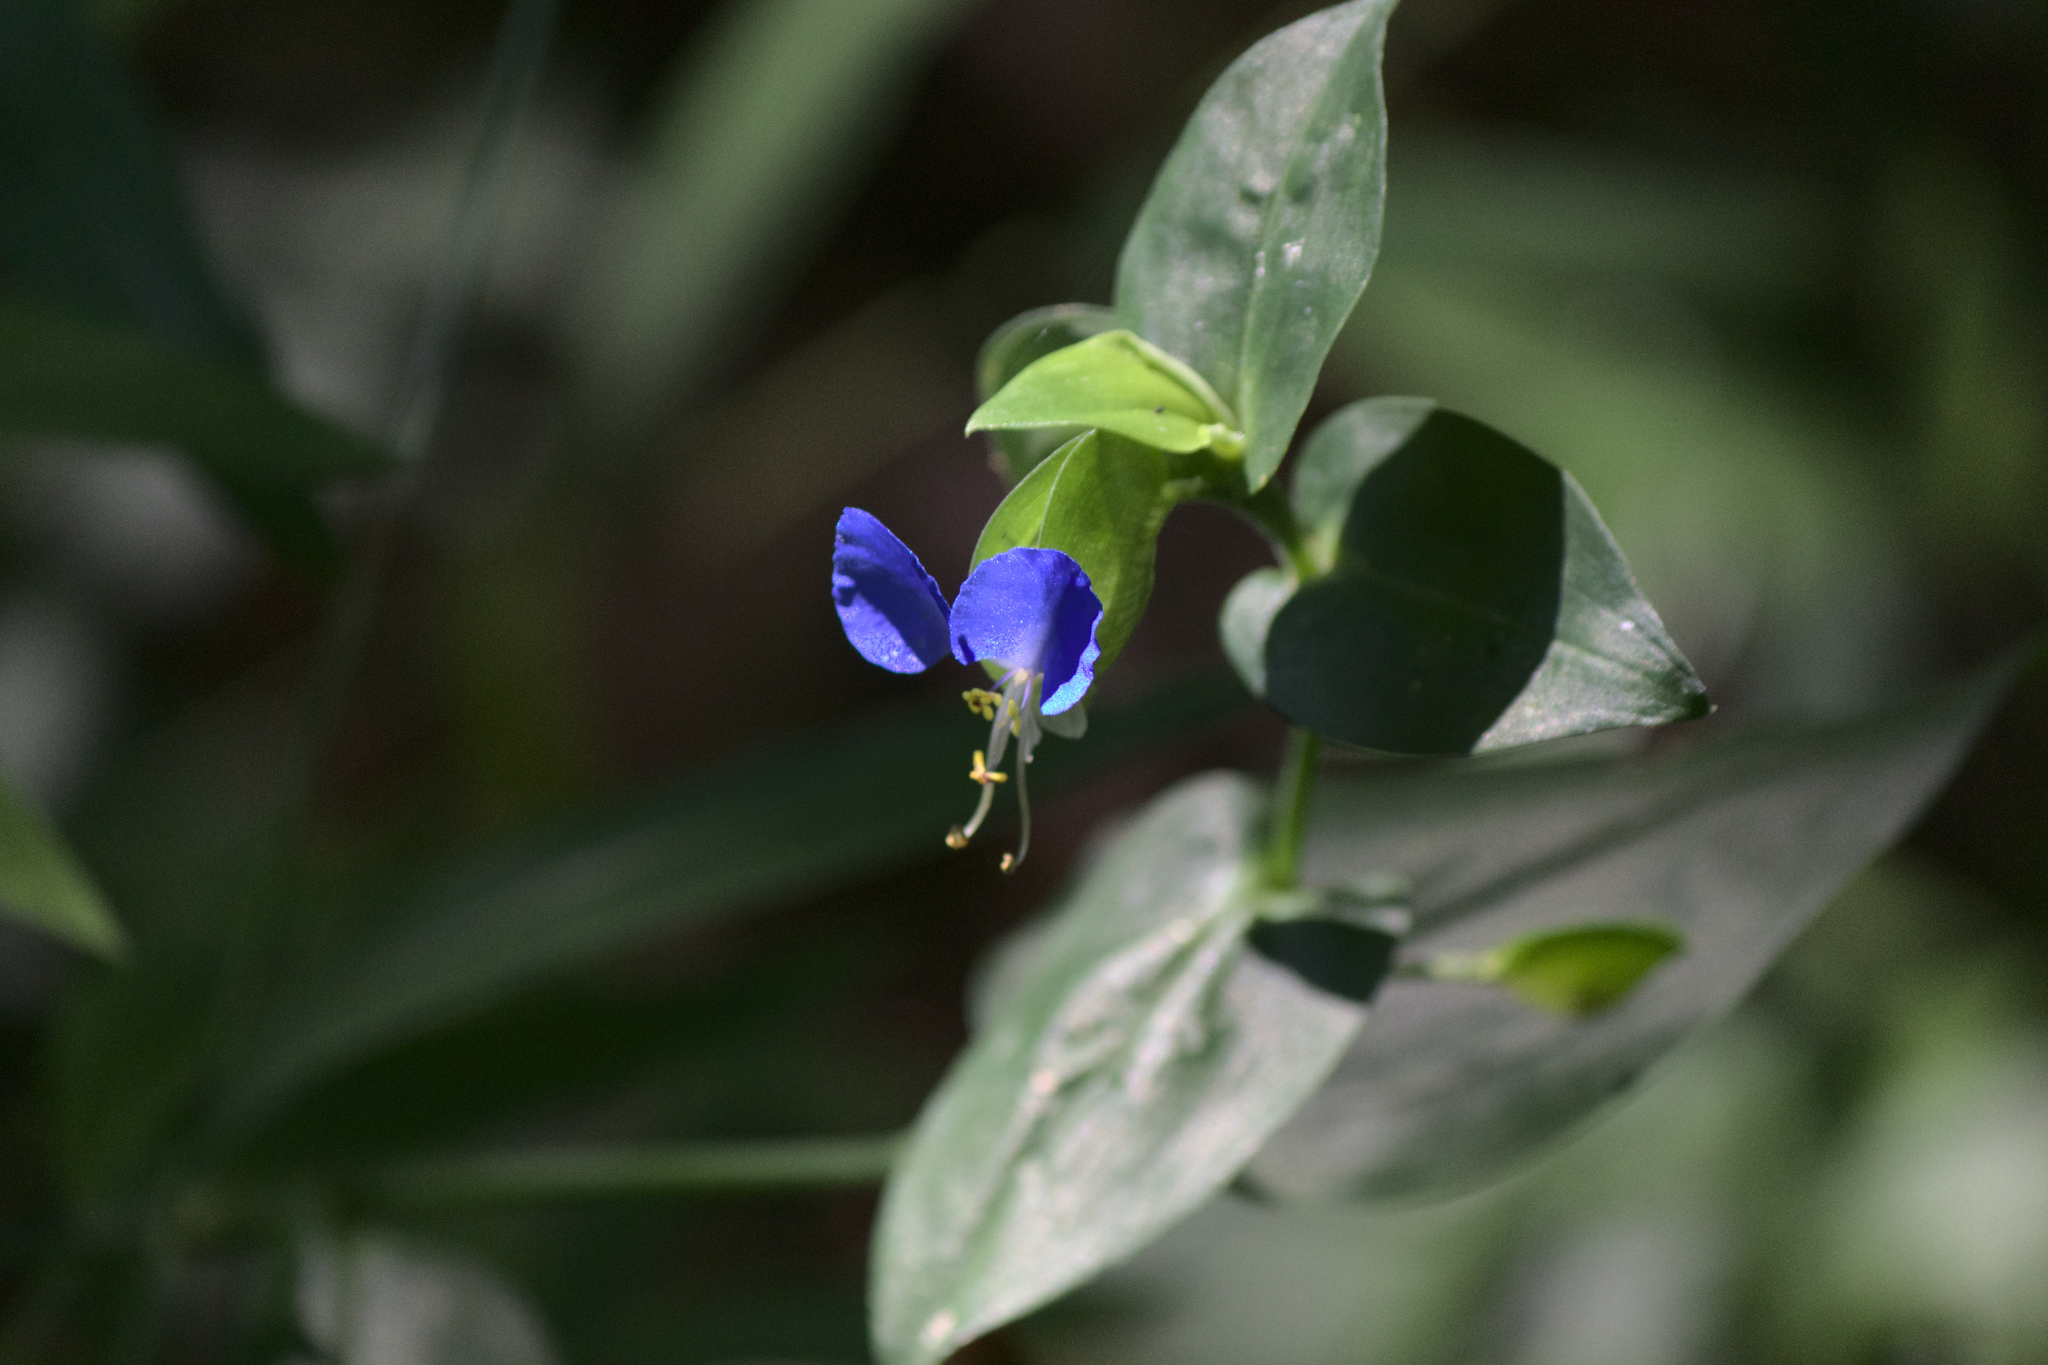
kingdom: Plantae
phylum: Tracheophyta
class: Liliopsida
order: Commelinales
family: Commelinaceae
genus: Commelina
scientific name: Commelina communis
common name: Asiatic dayflower
